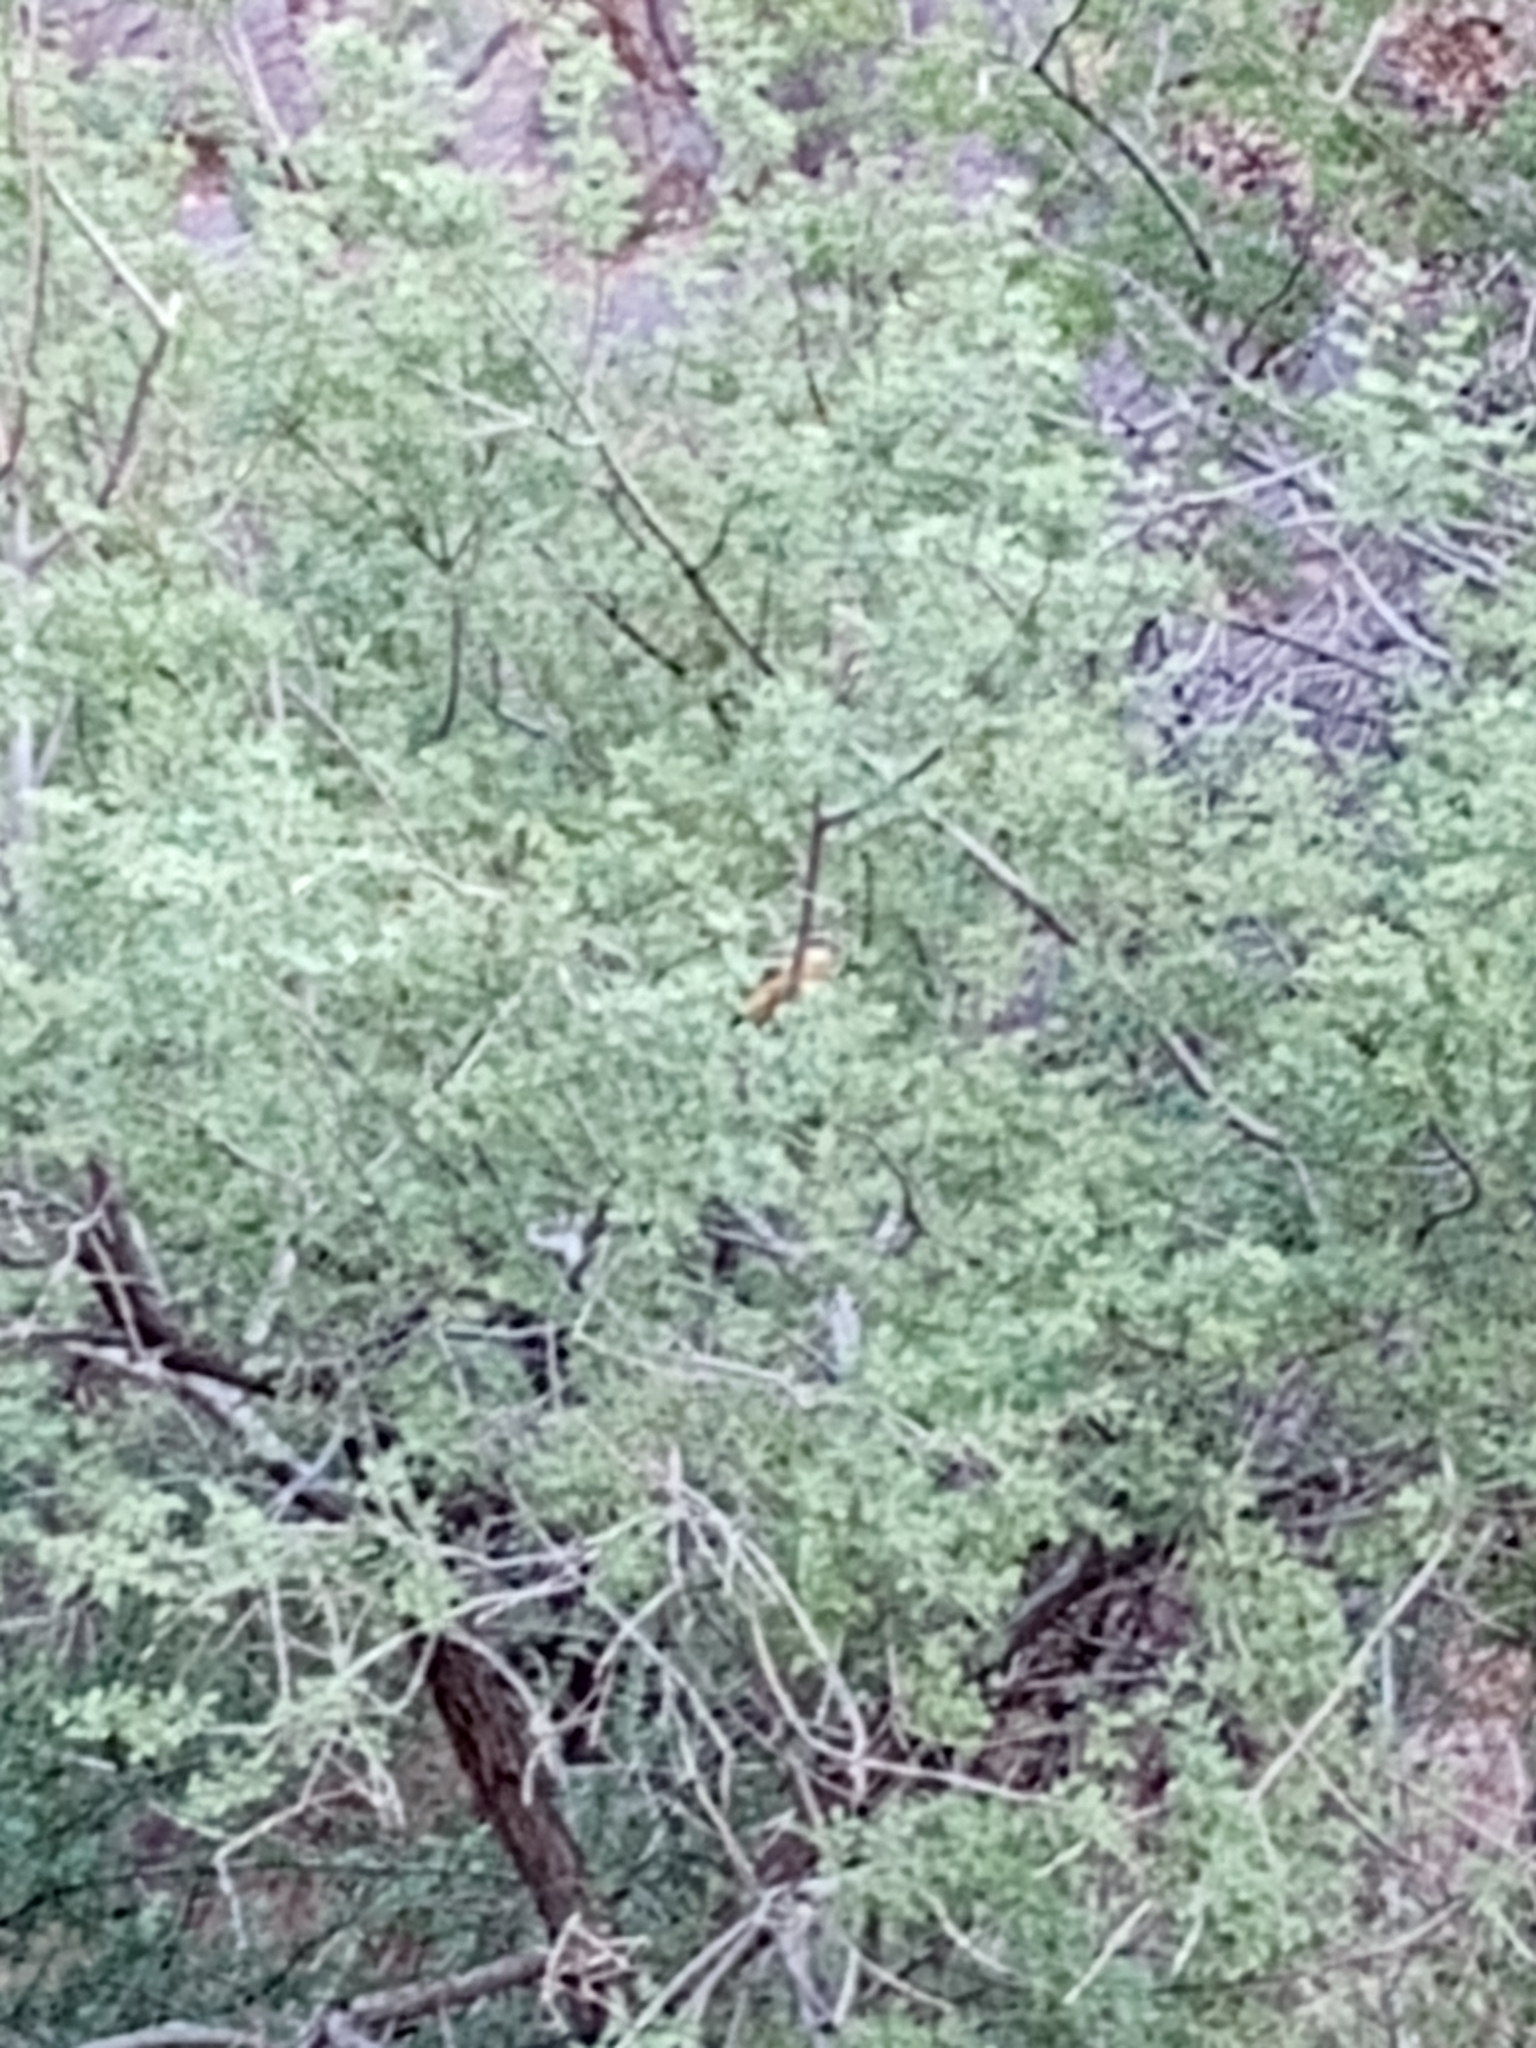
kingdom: Animalia
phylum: Chordata
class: Aves
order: Passeriformes
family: Cardinalidae
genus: Pheucticus
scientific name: Pheucticus melanocephalus
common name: Black-headed grosbeak
